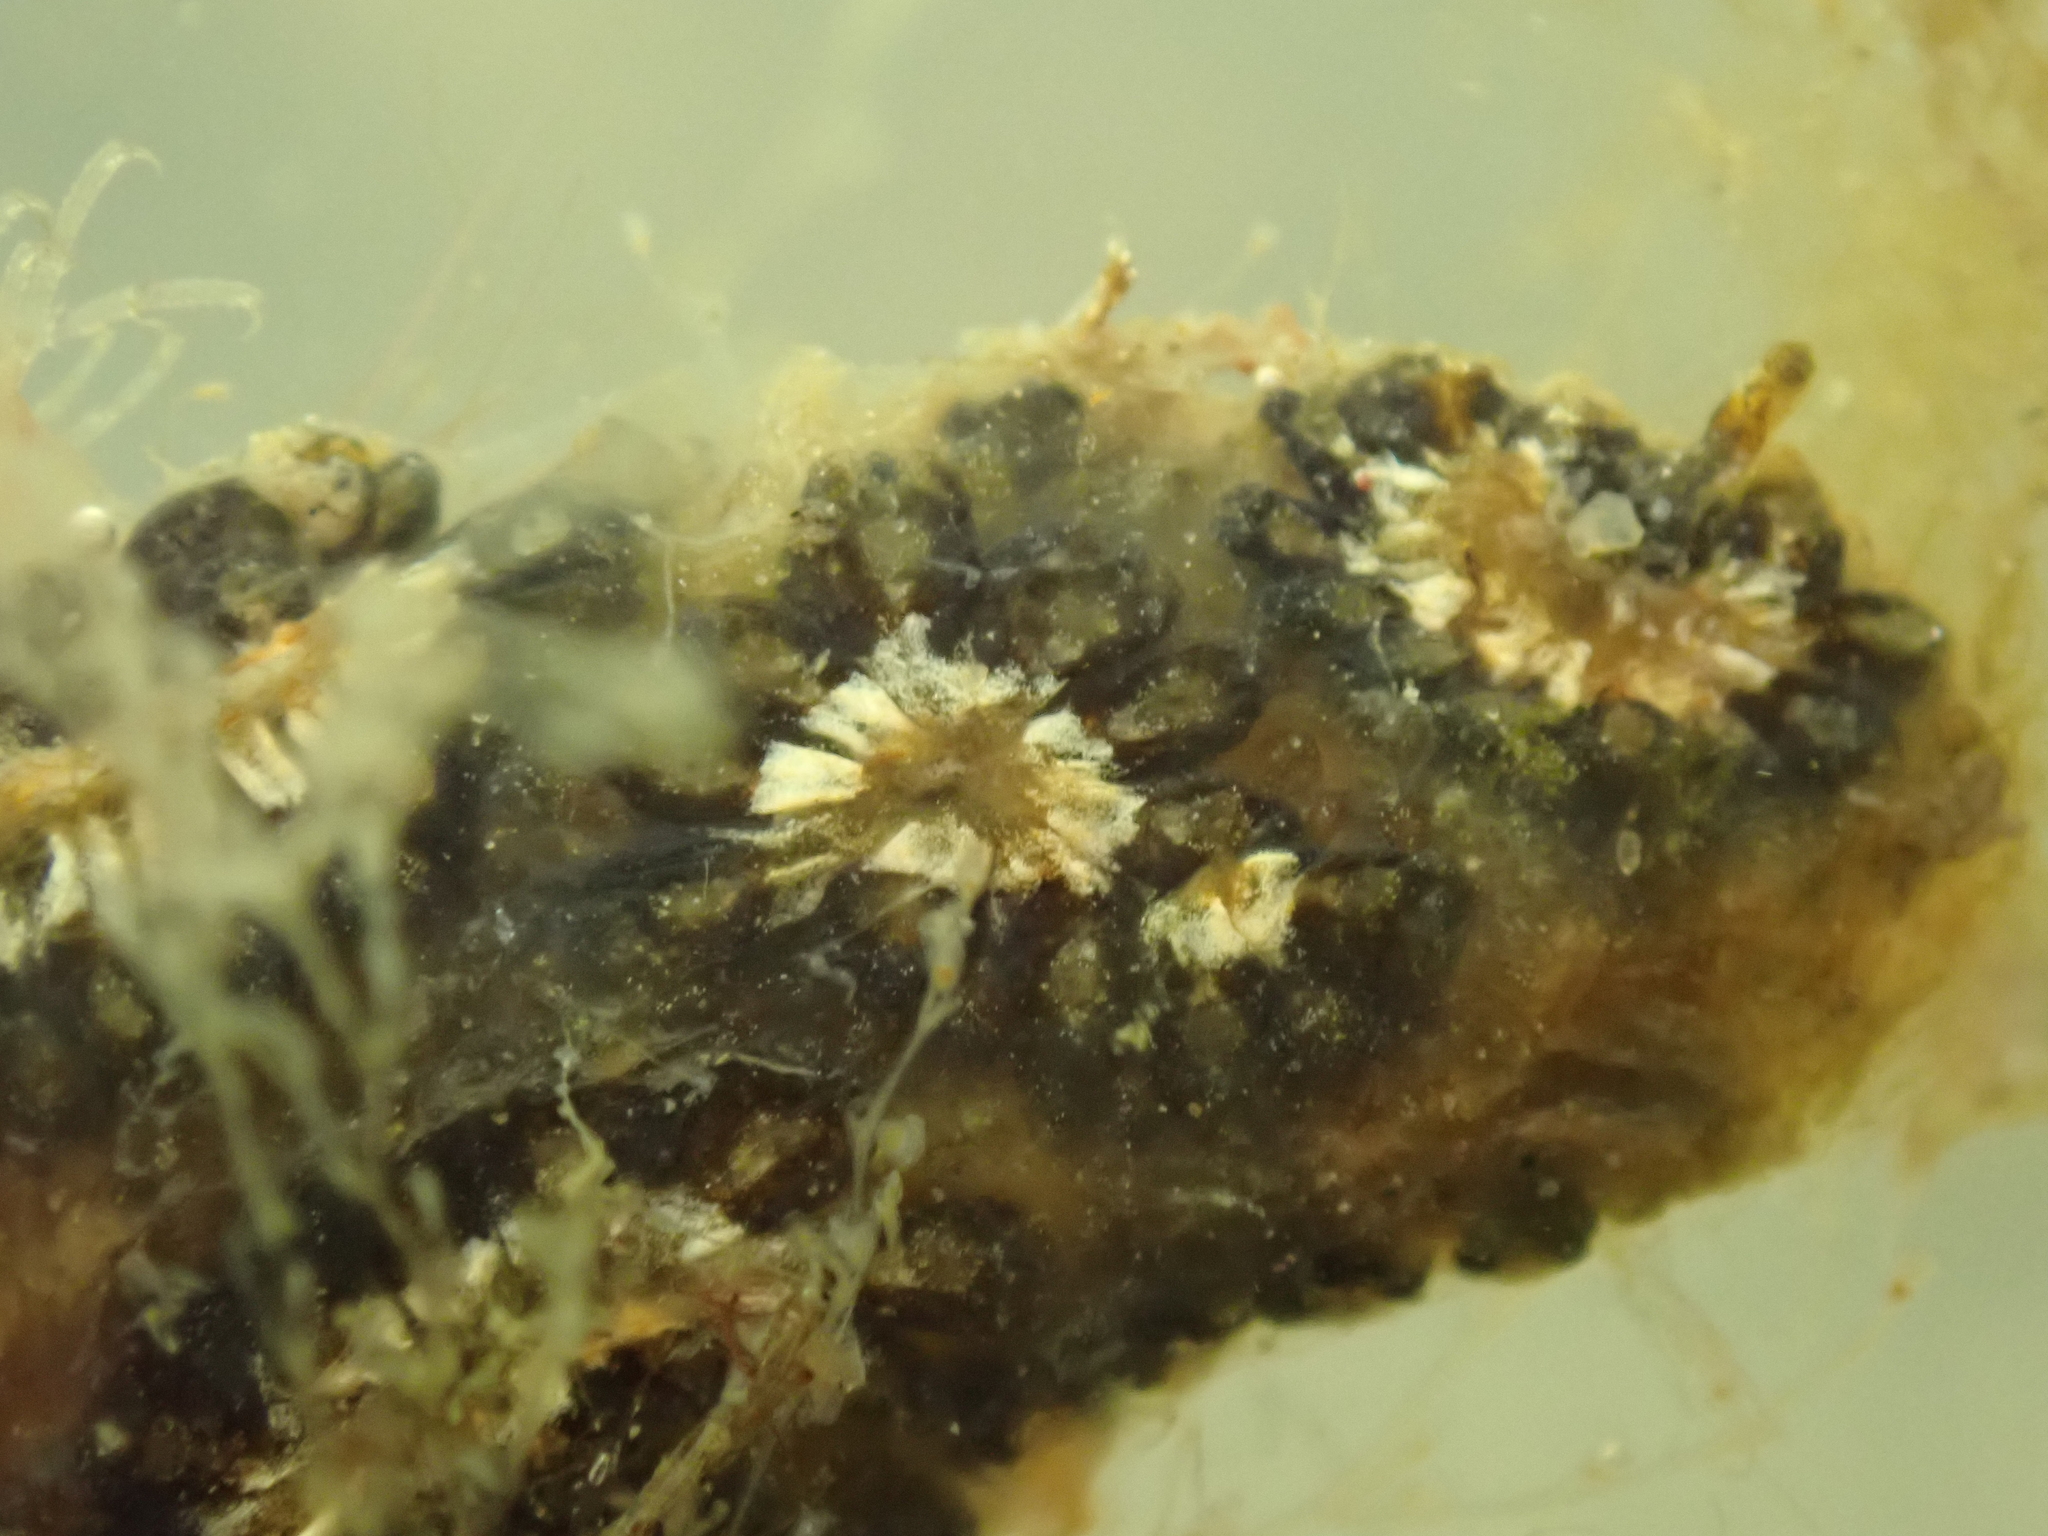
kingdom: Animalia
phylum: Chordata
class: Ascidiacea
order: Stolidobranchia
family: Styelidae
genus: Botryllus
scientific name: Botryllus schlosseri
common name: Golden star tunicate
